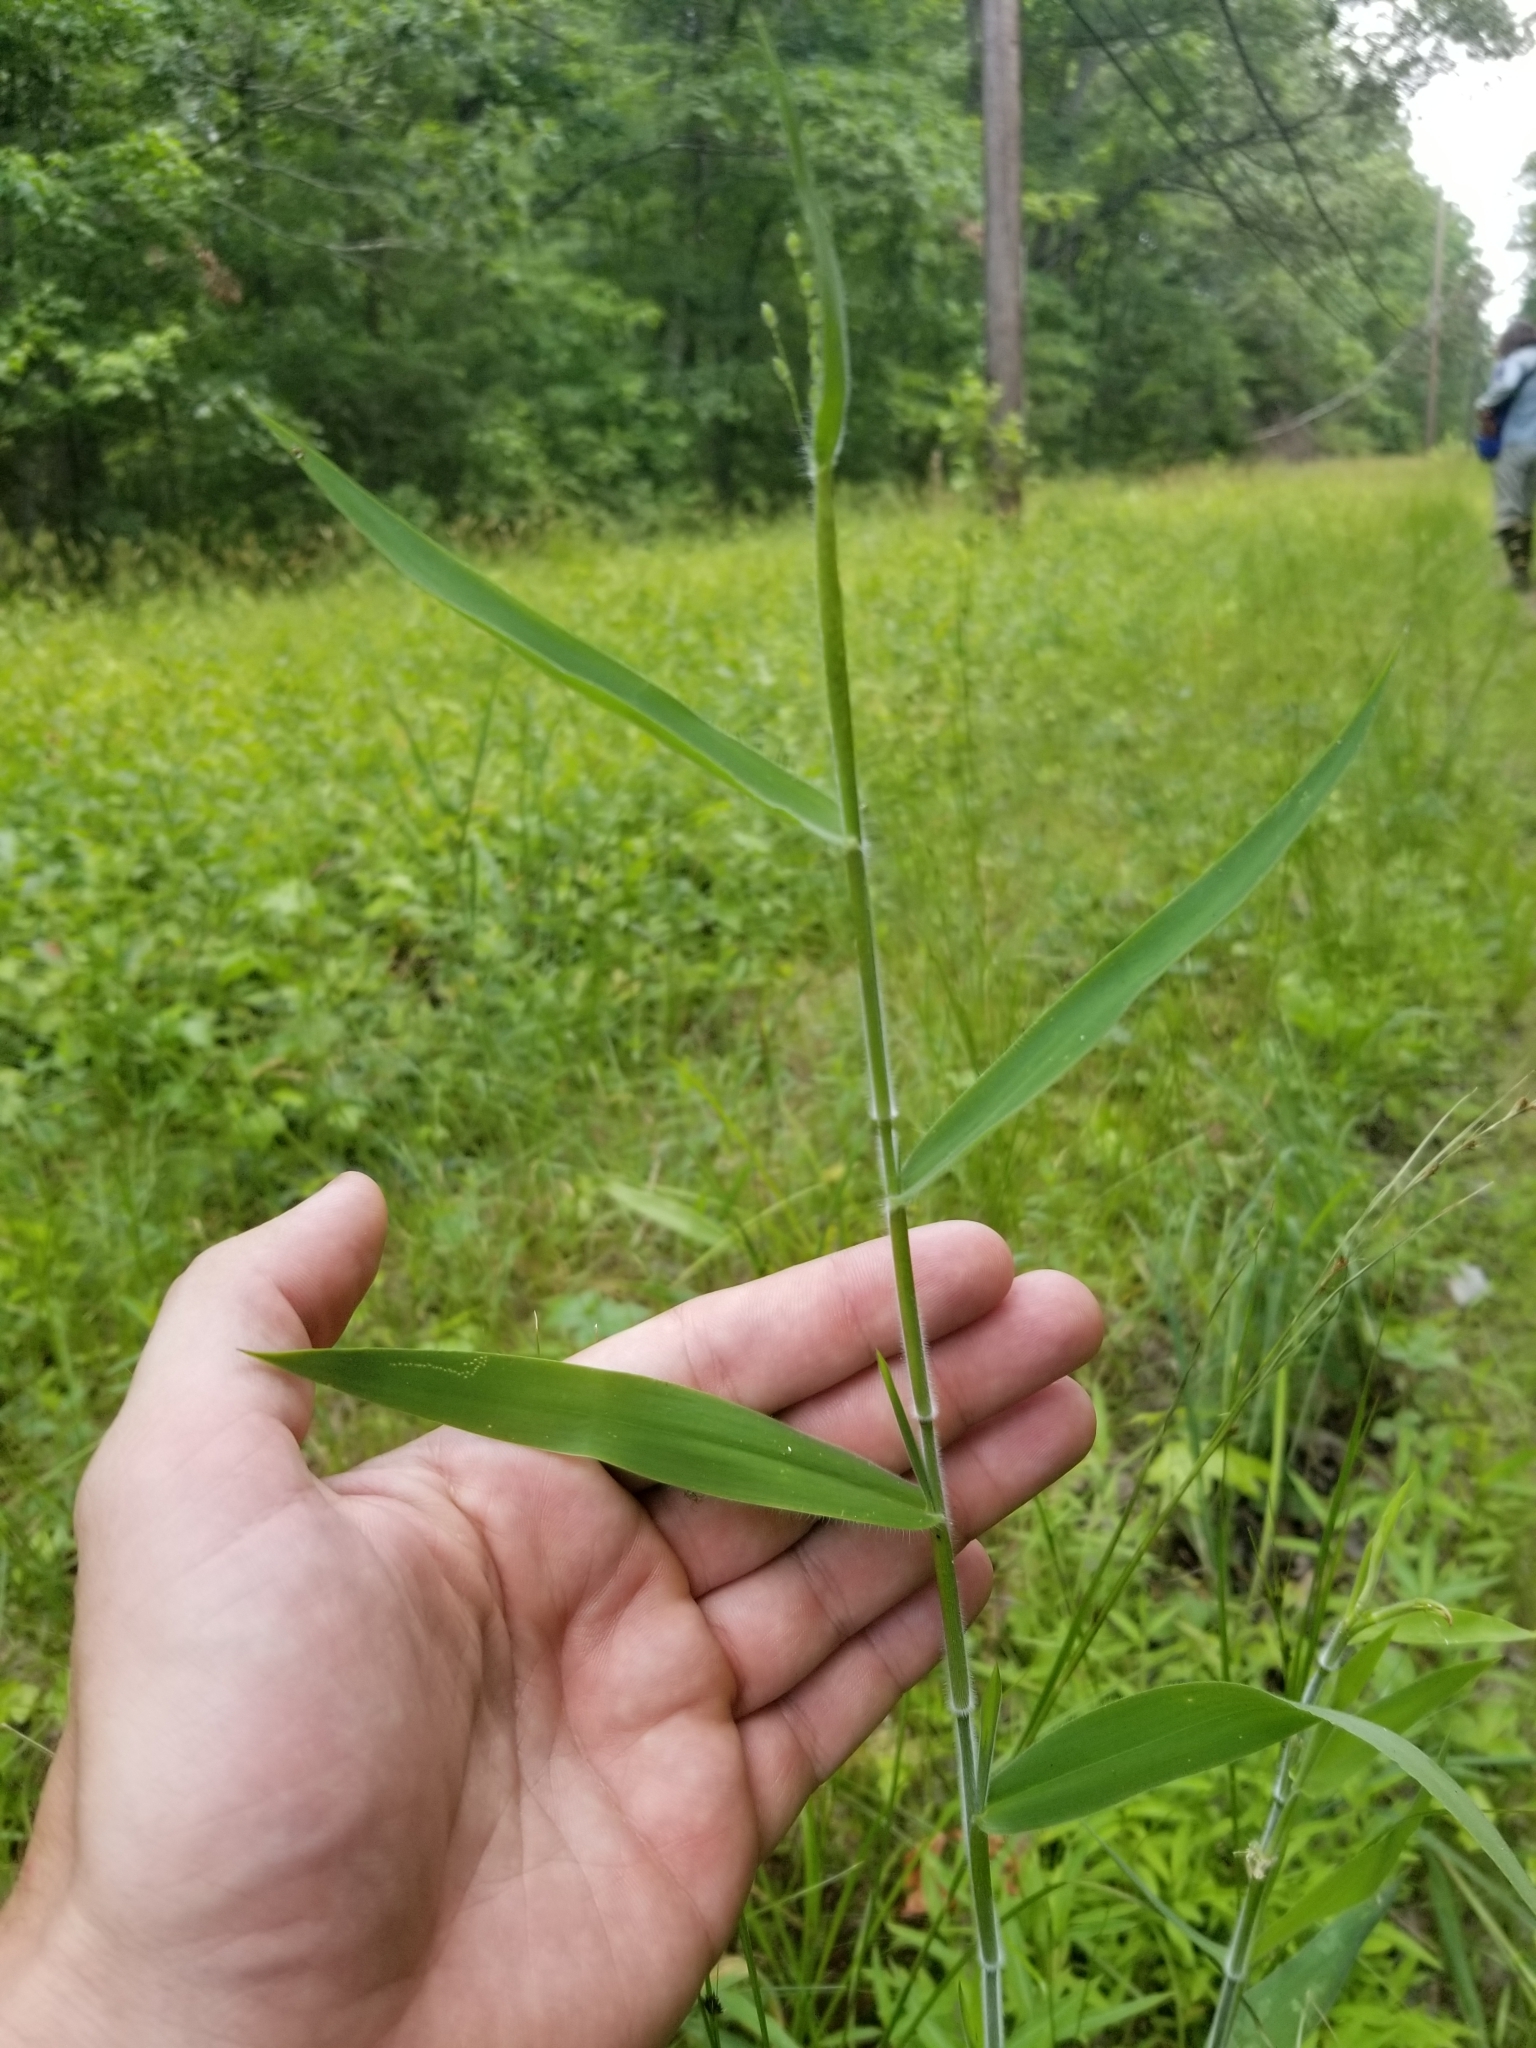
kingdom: Plantae
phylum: Tracheophyta
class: Liliopsida
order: Poales
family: Poaceae
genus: Dichanthelium
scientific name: Dichanthelium scoparium
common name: Velvety panic grass
